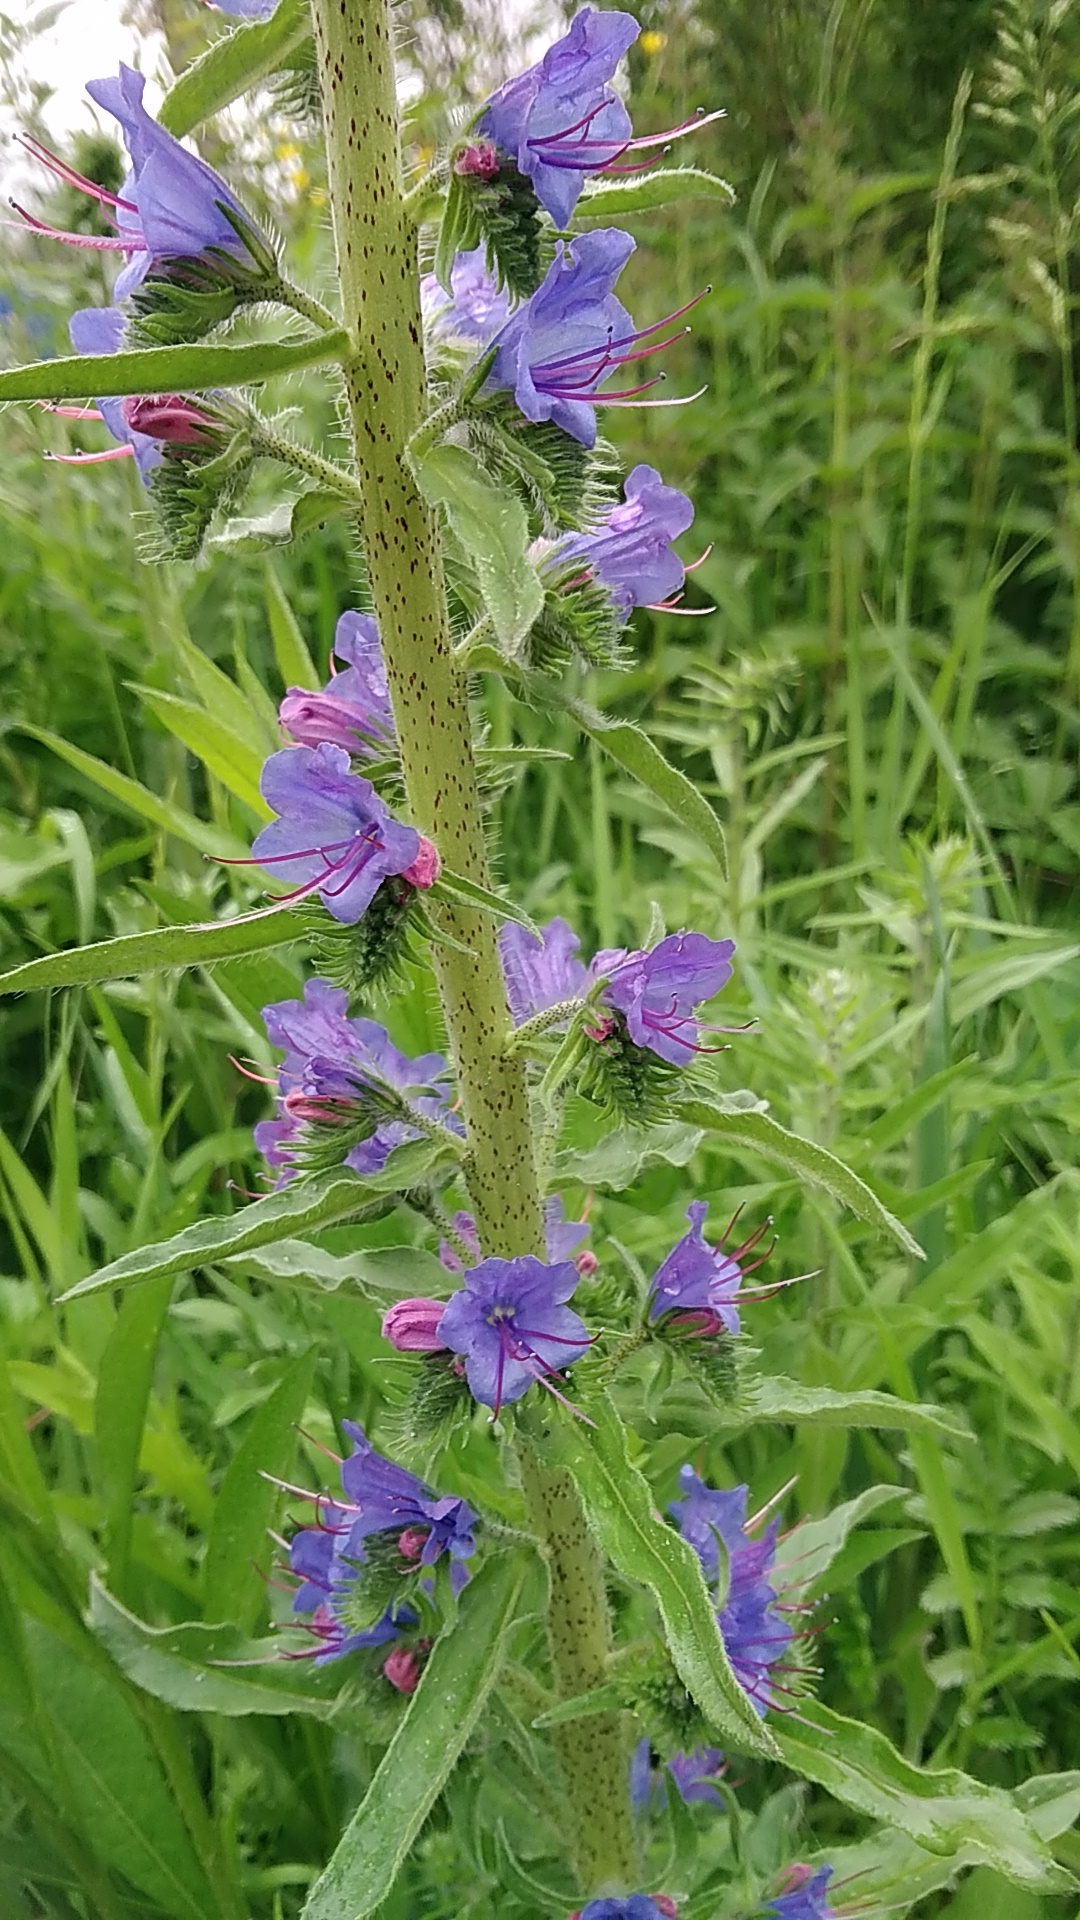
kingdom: Plantae
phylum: Tracheophyta
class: Magnoliopsida
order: Boraginales
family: Boraginaceae
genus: Echium
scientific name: Echium vulgare
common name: Common viper's bugloss
